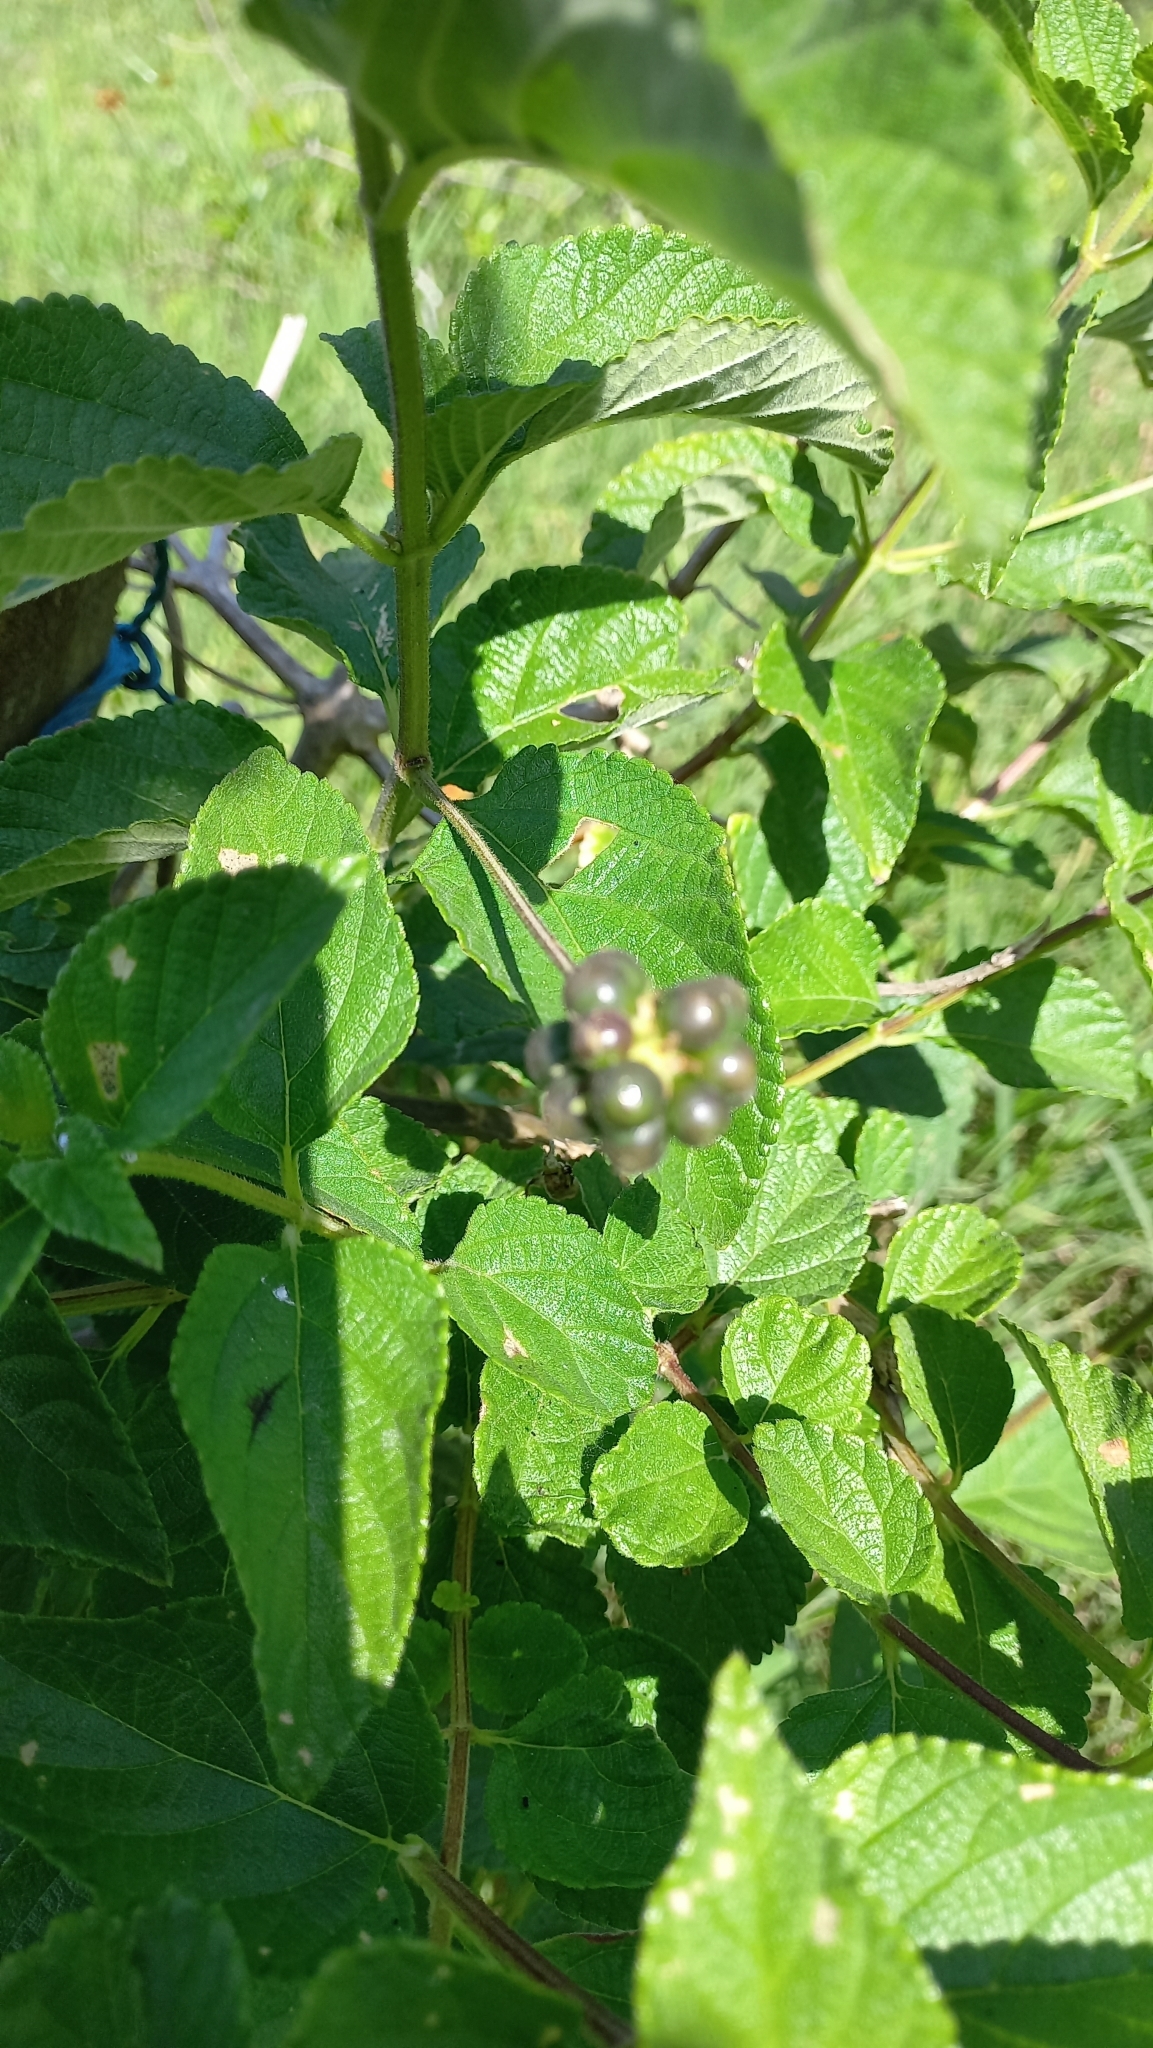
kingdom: Plantae
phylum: Tracheophyta
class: Magnoliopsida
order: Lamiales
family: Verbenaceae
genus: Lantana
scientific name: Lantana camara
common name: Lantana
